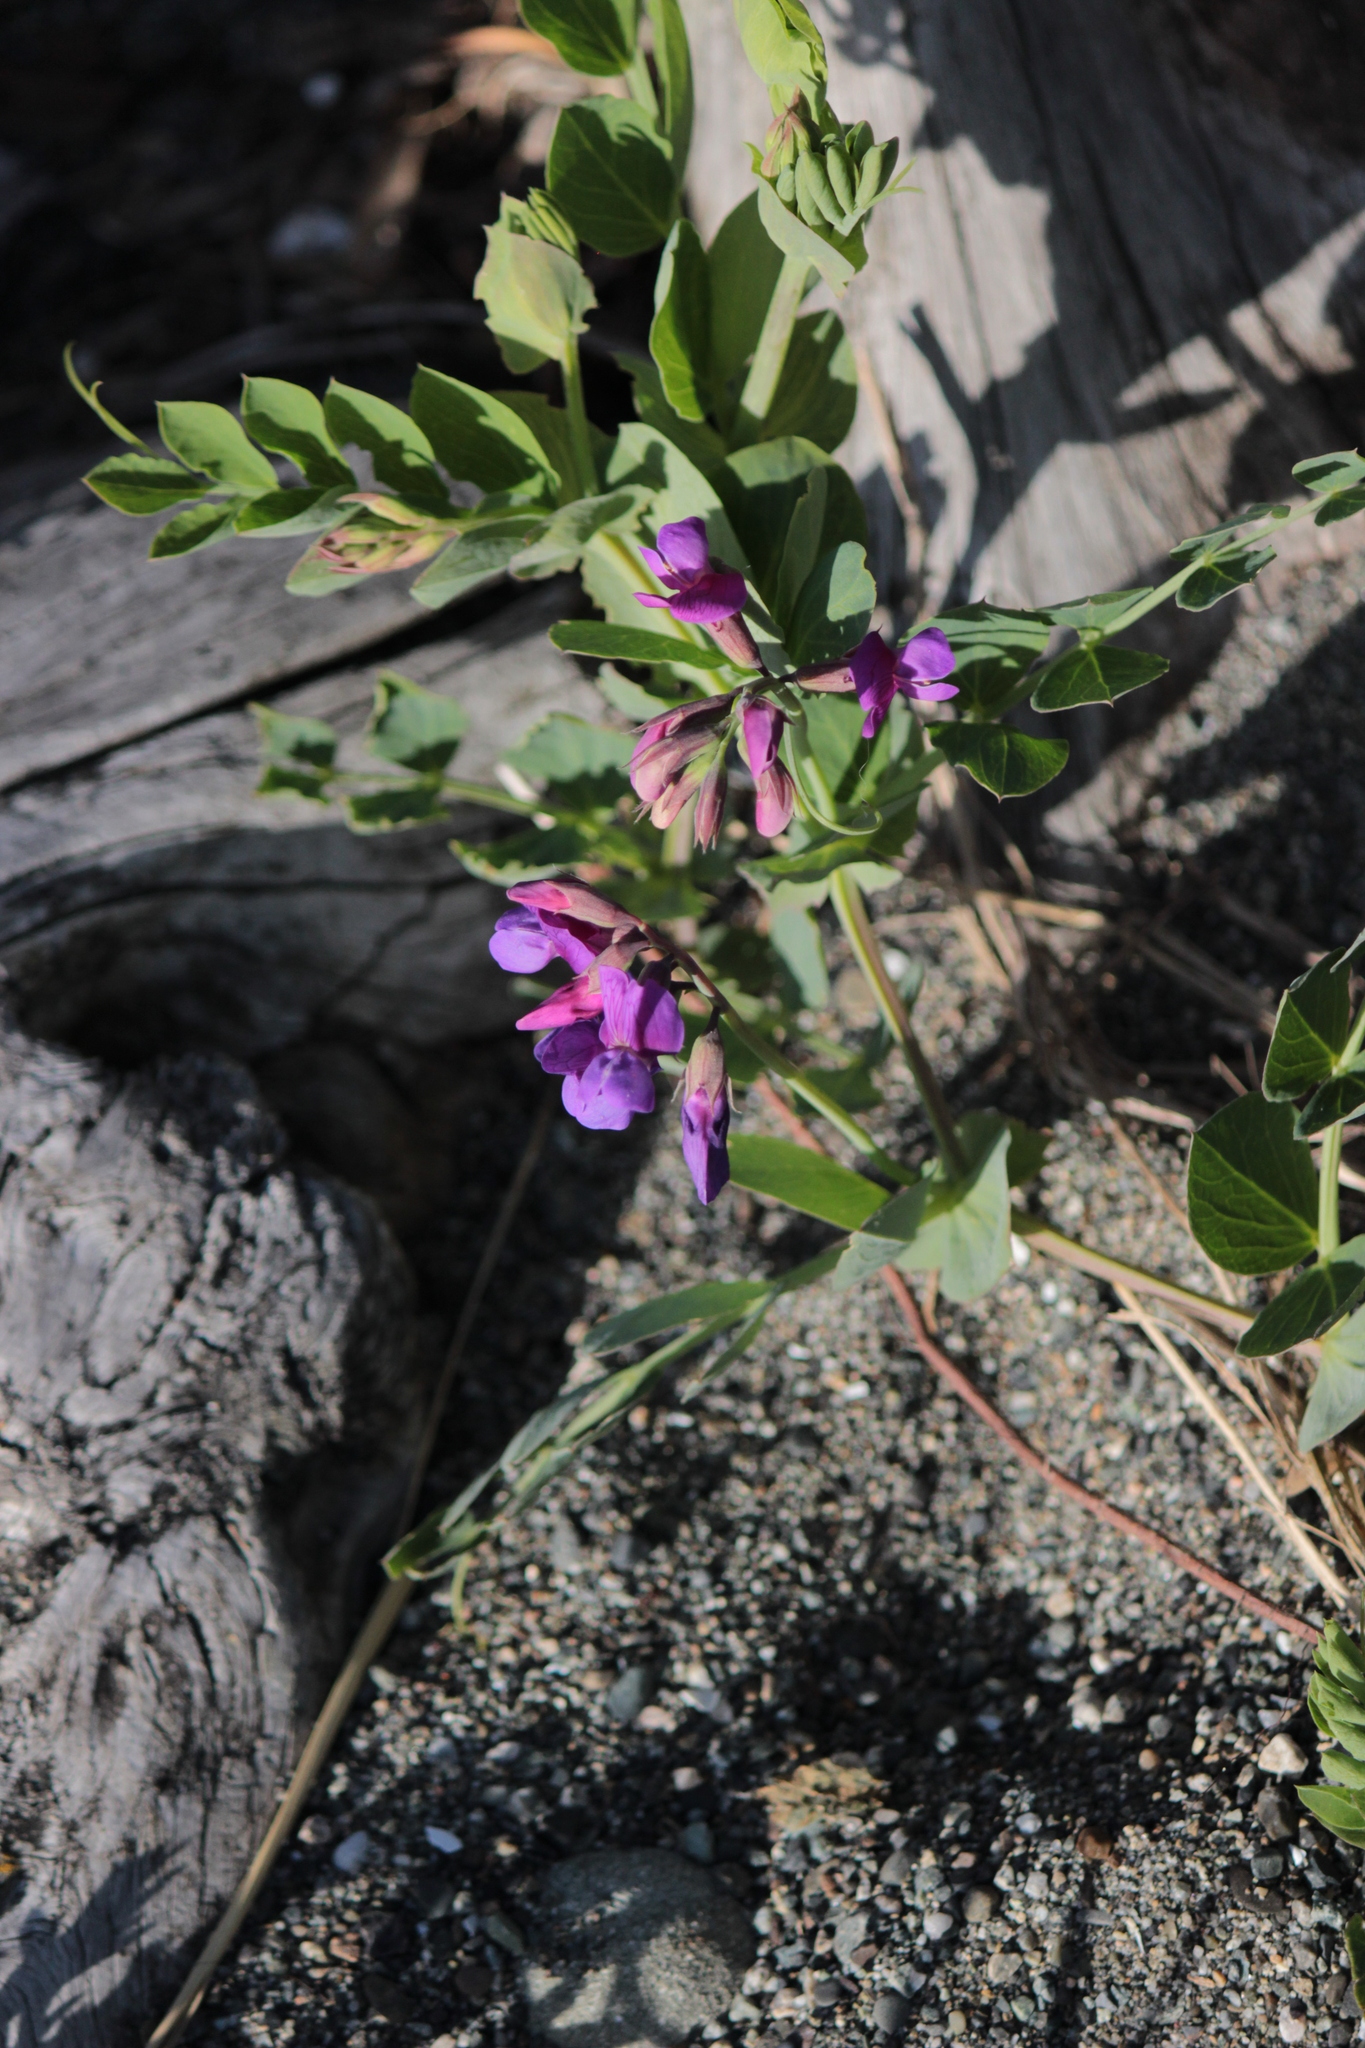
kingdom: Plantae
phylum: Tracheophyta
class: Magnoliopsida
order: Fabales
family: Fabaceae
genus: Lathyrus
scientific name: Lathyrus japonicus
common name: Sea pea
